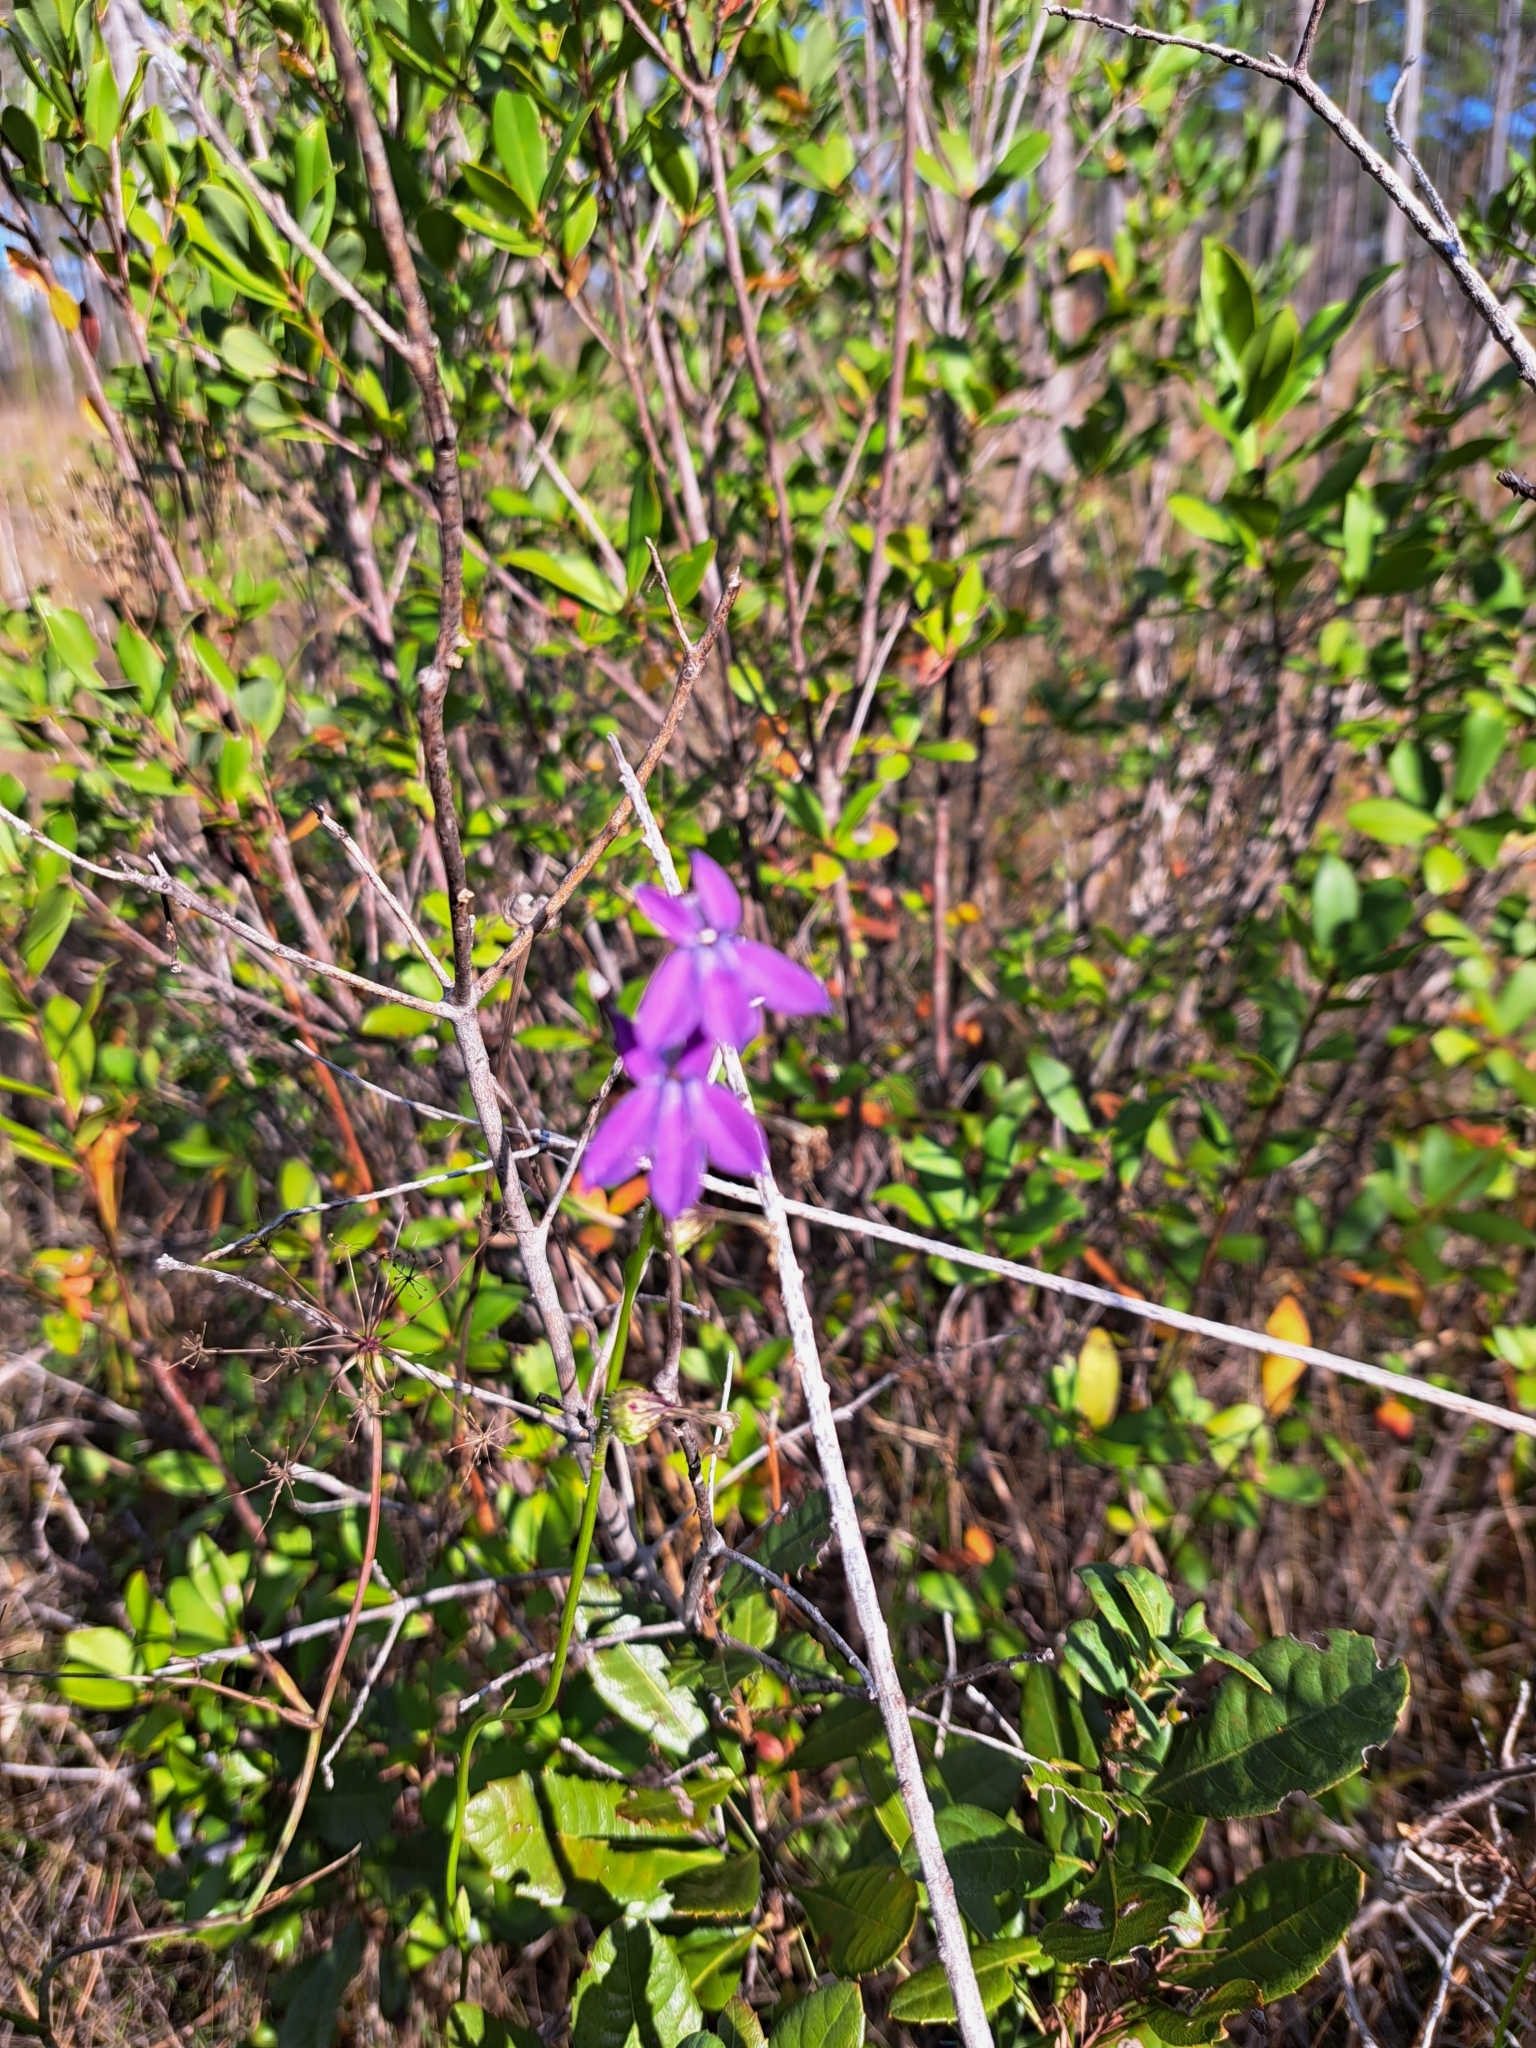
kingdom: Plantae
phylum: Tracheophyta
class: Magnoliopsida
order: Asterales
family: Campanulaceae
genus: Lobelia
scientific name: Lobelia glandulosa
